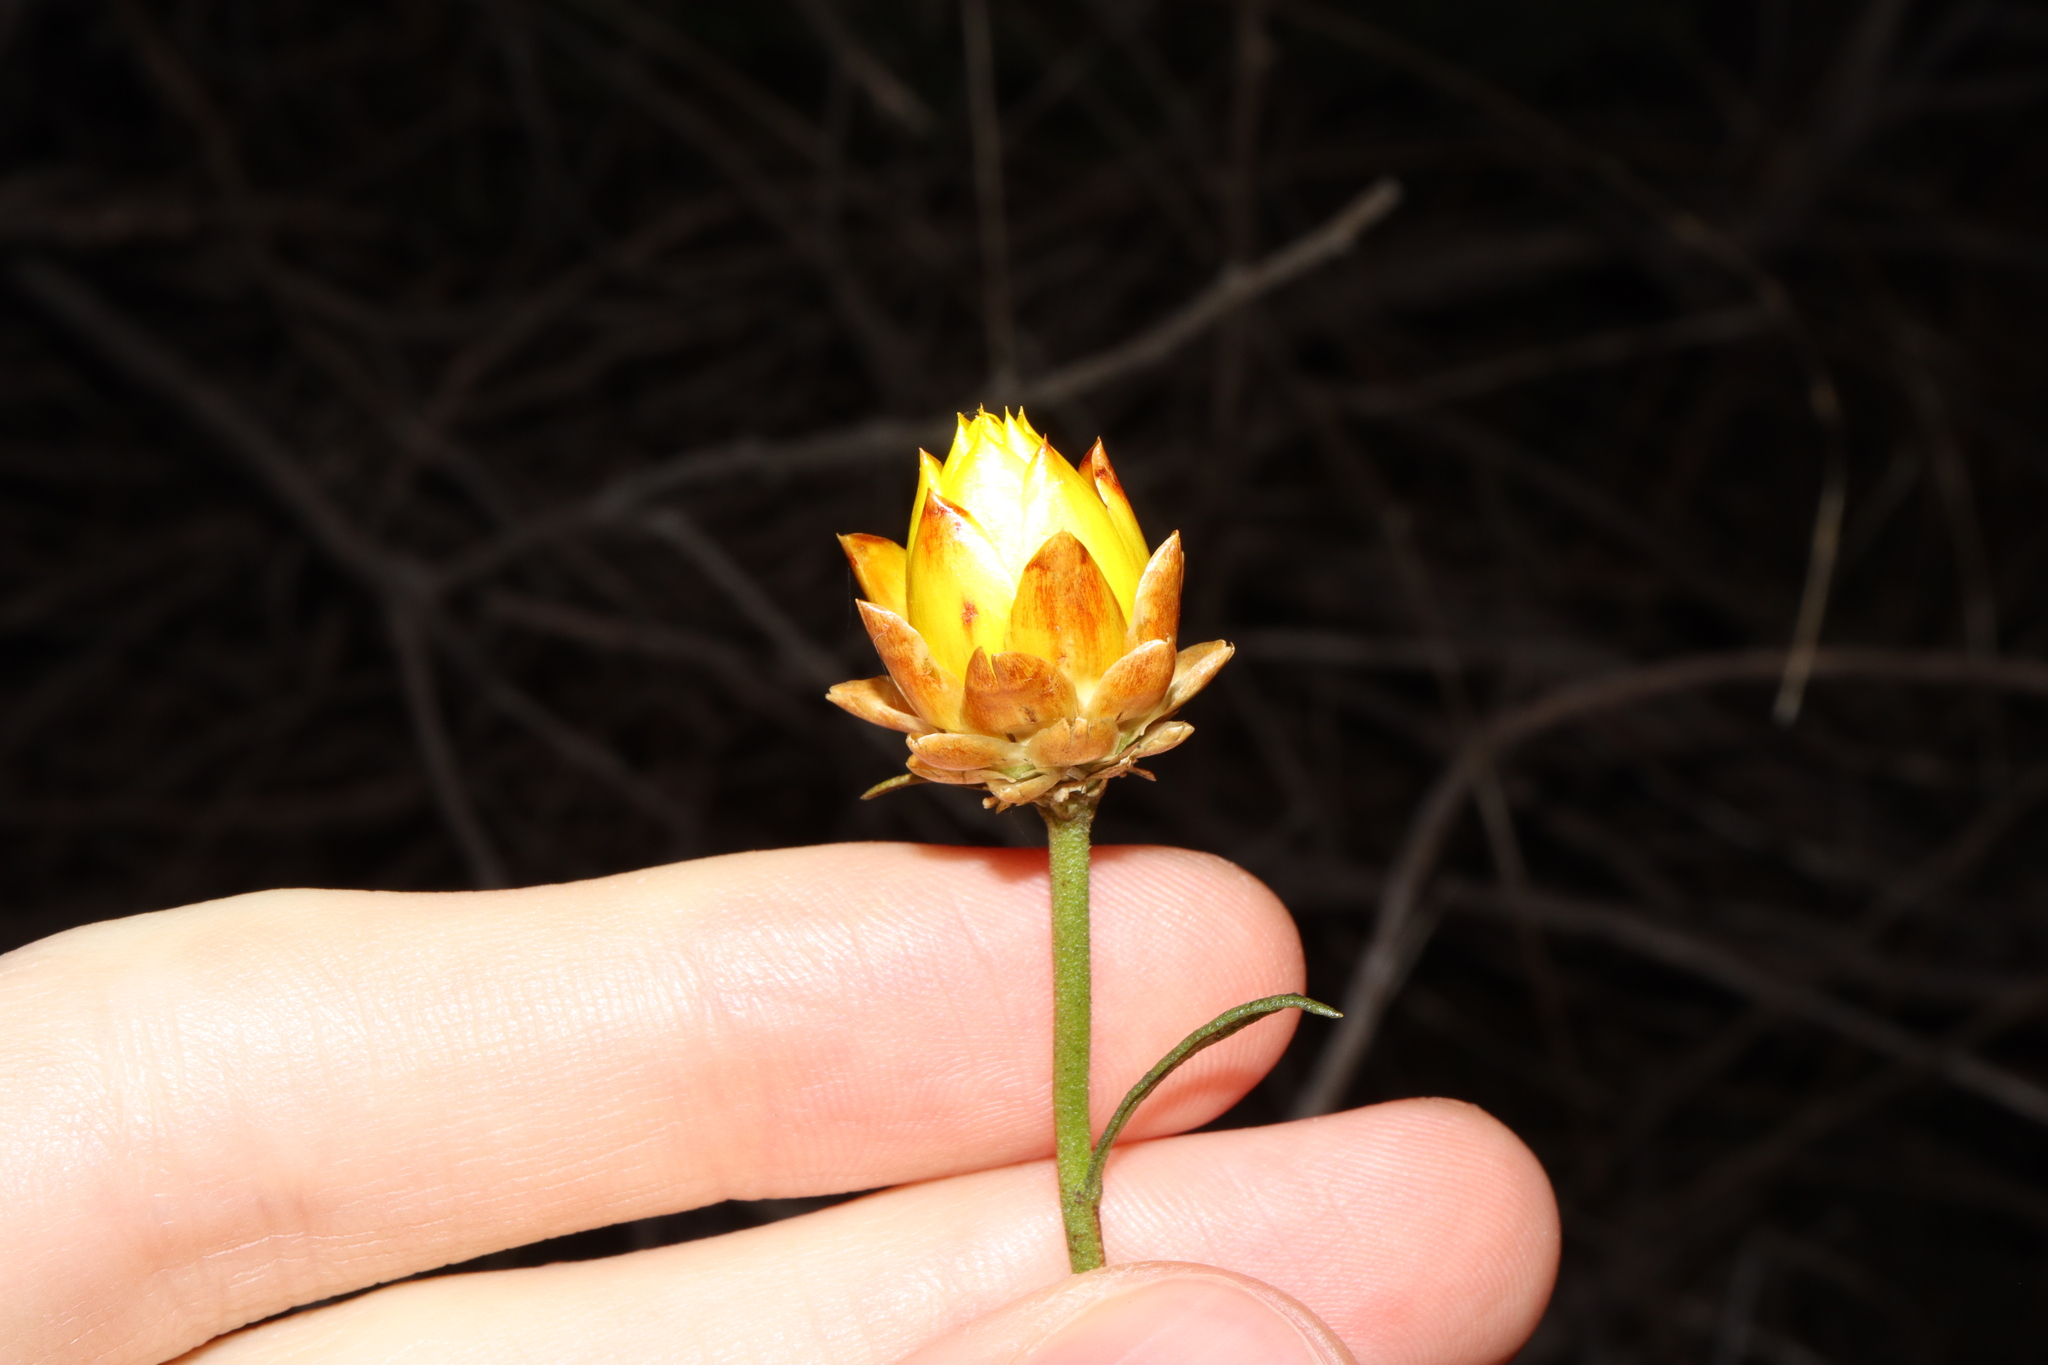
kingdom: Plantae
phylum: Tracheophyta
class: Magnoliopsida
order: Asterales
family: Asteraceae
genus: Xerochrysum
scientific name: Xerochrysum viscosum
